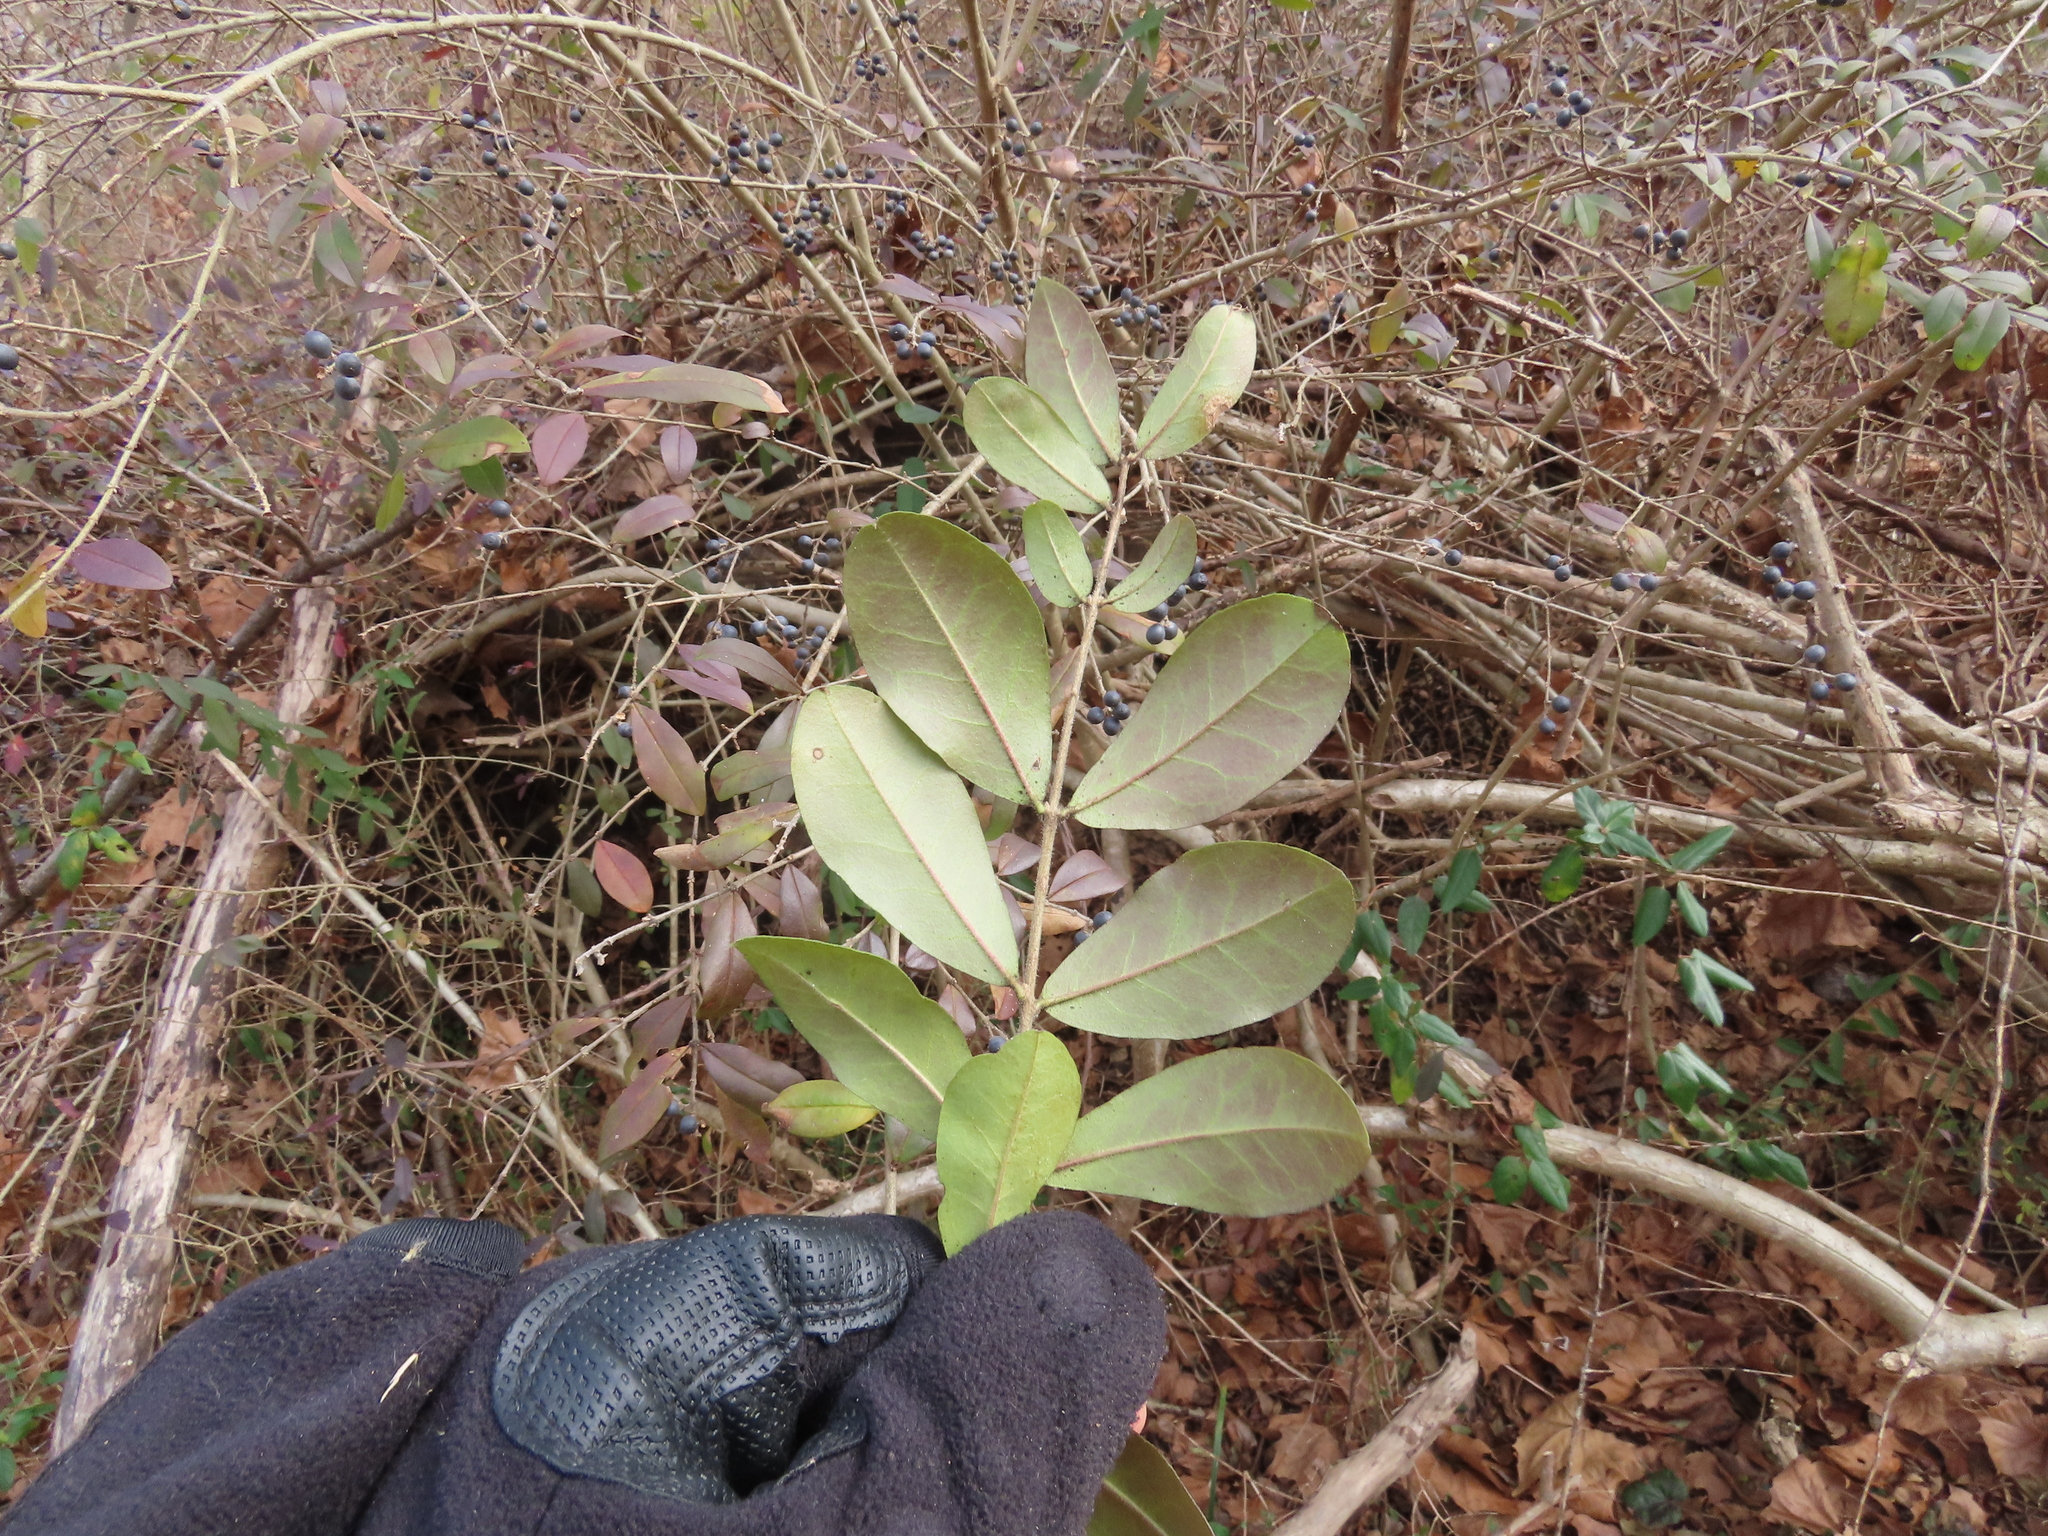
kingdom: Plantae
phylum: Tracheophyta
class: Magnoliopsida
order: Lamiales
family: Oleaceae
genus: Ligustrum
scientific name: Ligustrum obtusifolium
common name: Border privet
